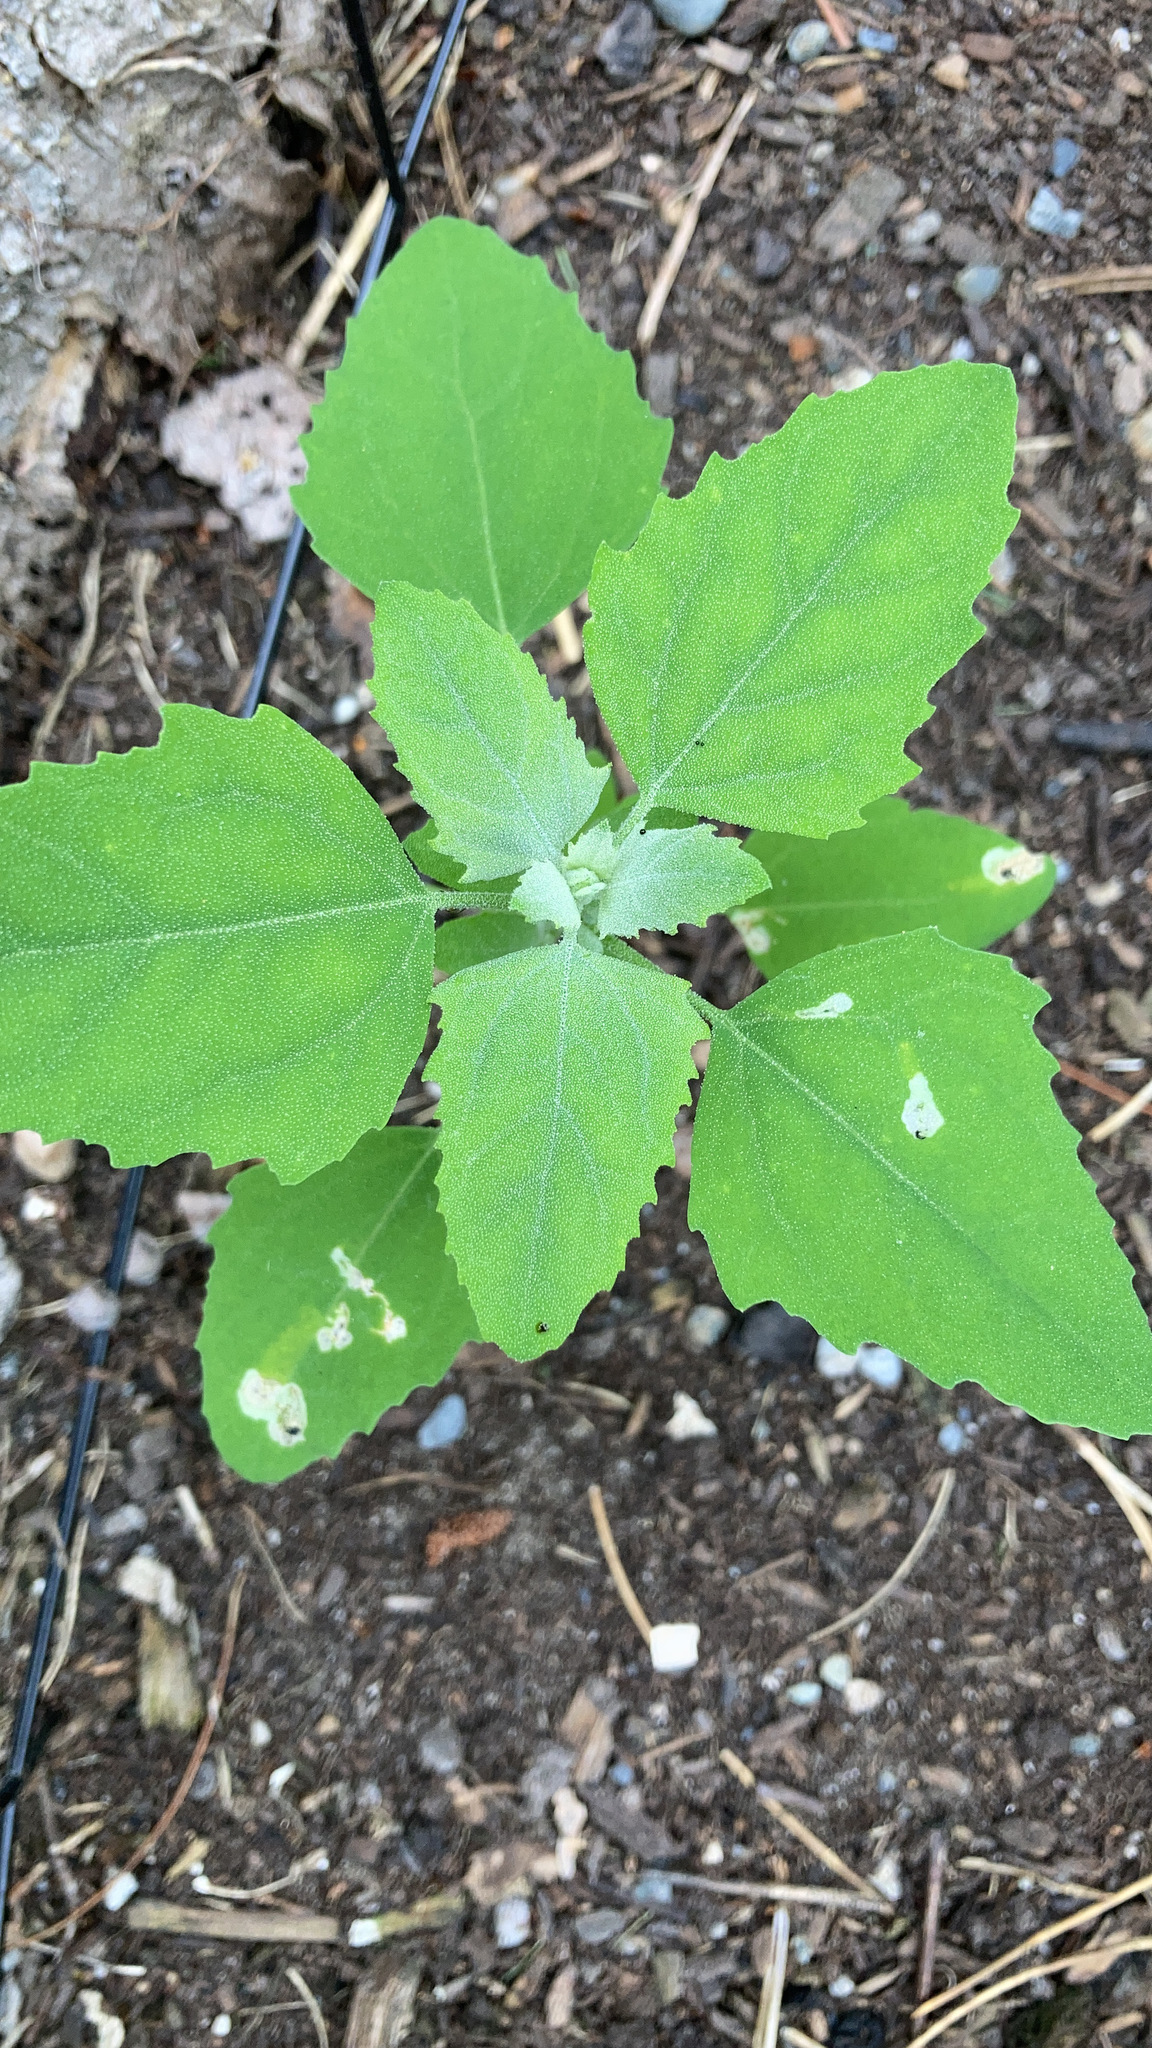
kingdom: Plantae
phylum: Tracheophyta
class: Magnoliopsida
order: Caryophyllales
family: Amaranthaceae
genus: Chenopodium
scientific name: Chenopodium album
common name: Fat-hen
